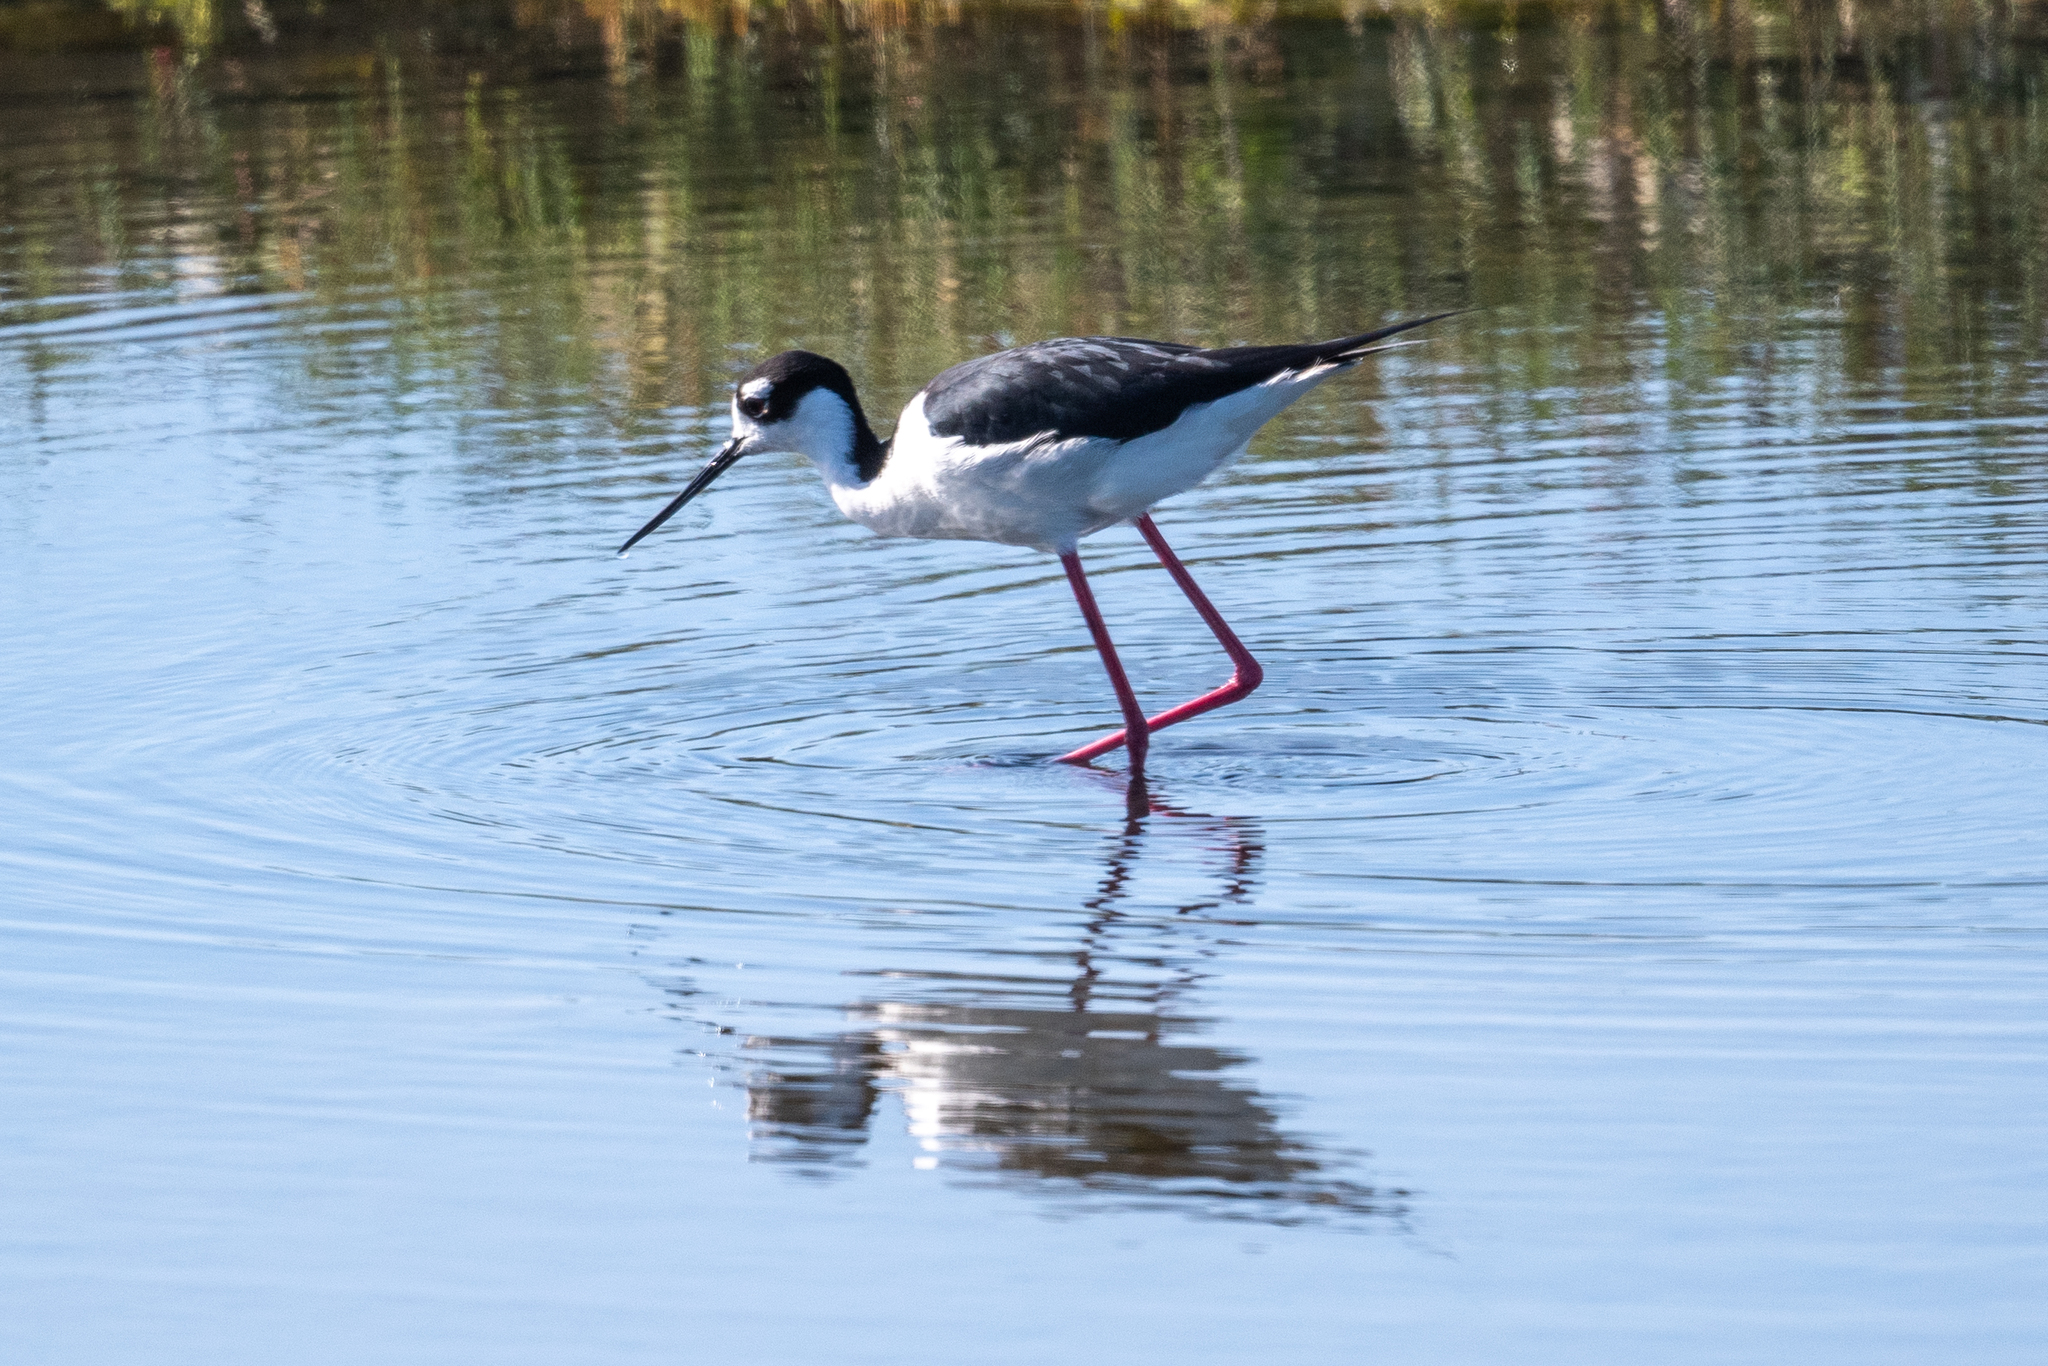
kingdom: Animalia
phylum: Chordata
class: Aves
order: Charadriiformes
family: Recurvirostridae
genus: Himantopus
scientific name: Himantopus mexicanus
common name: Black-necked stilt
